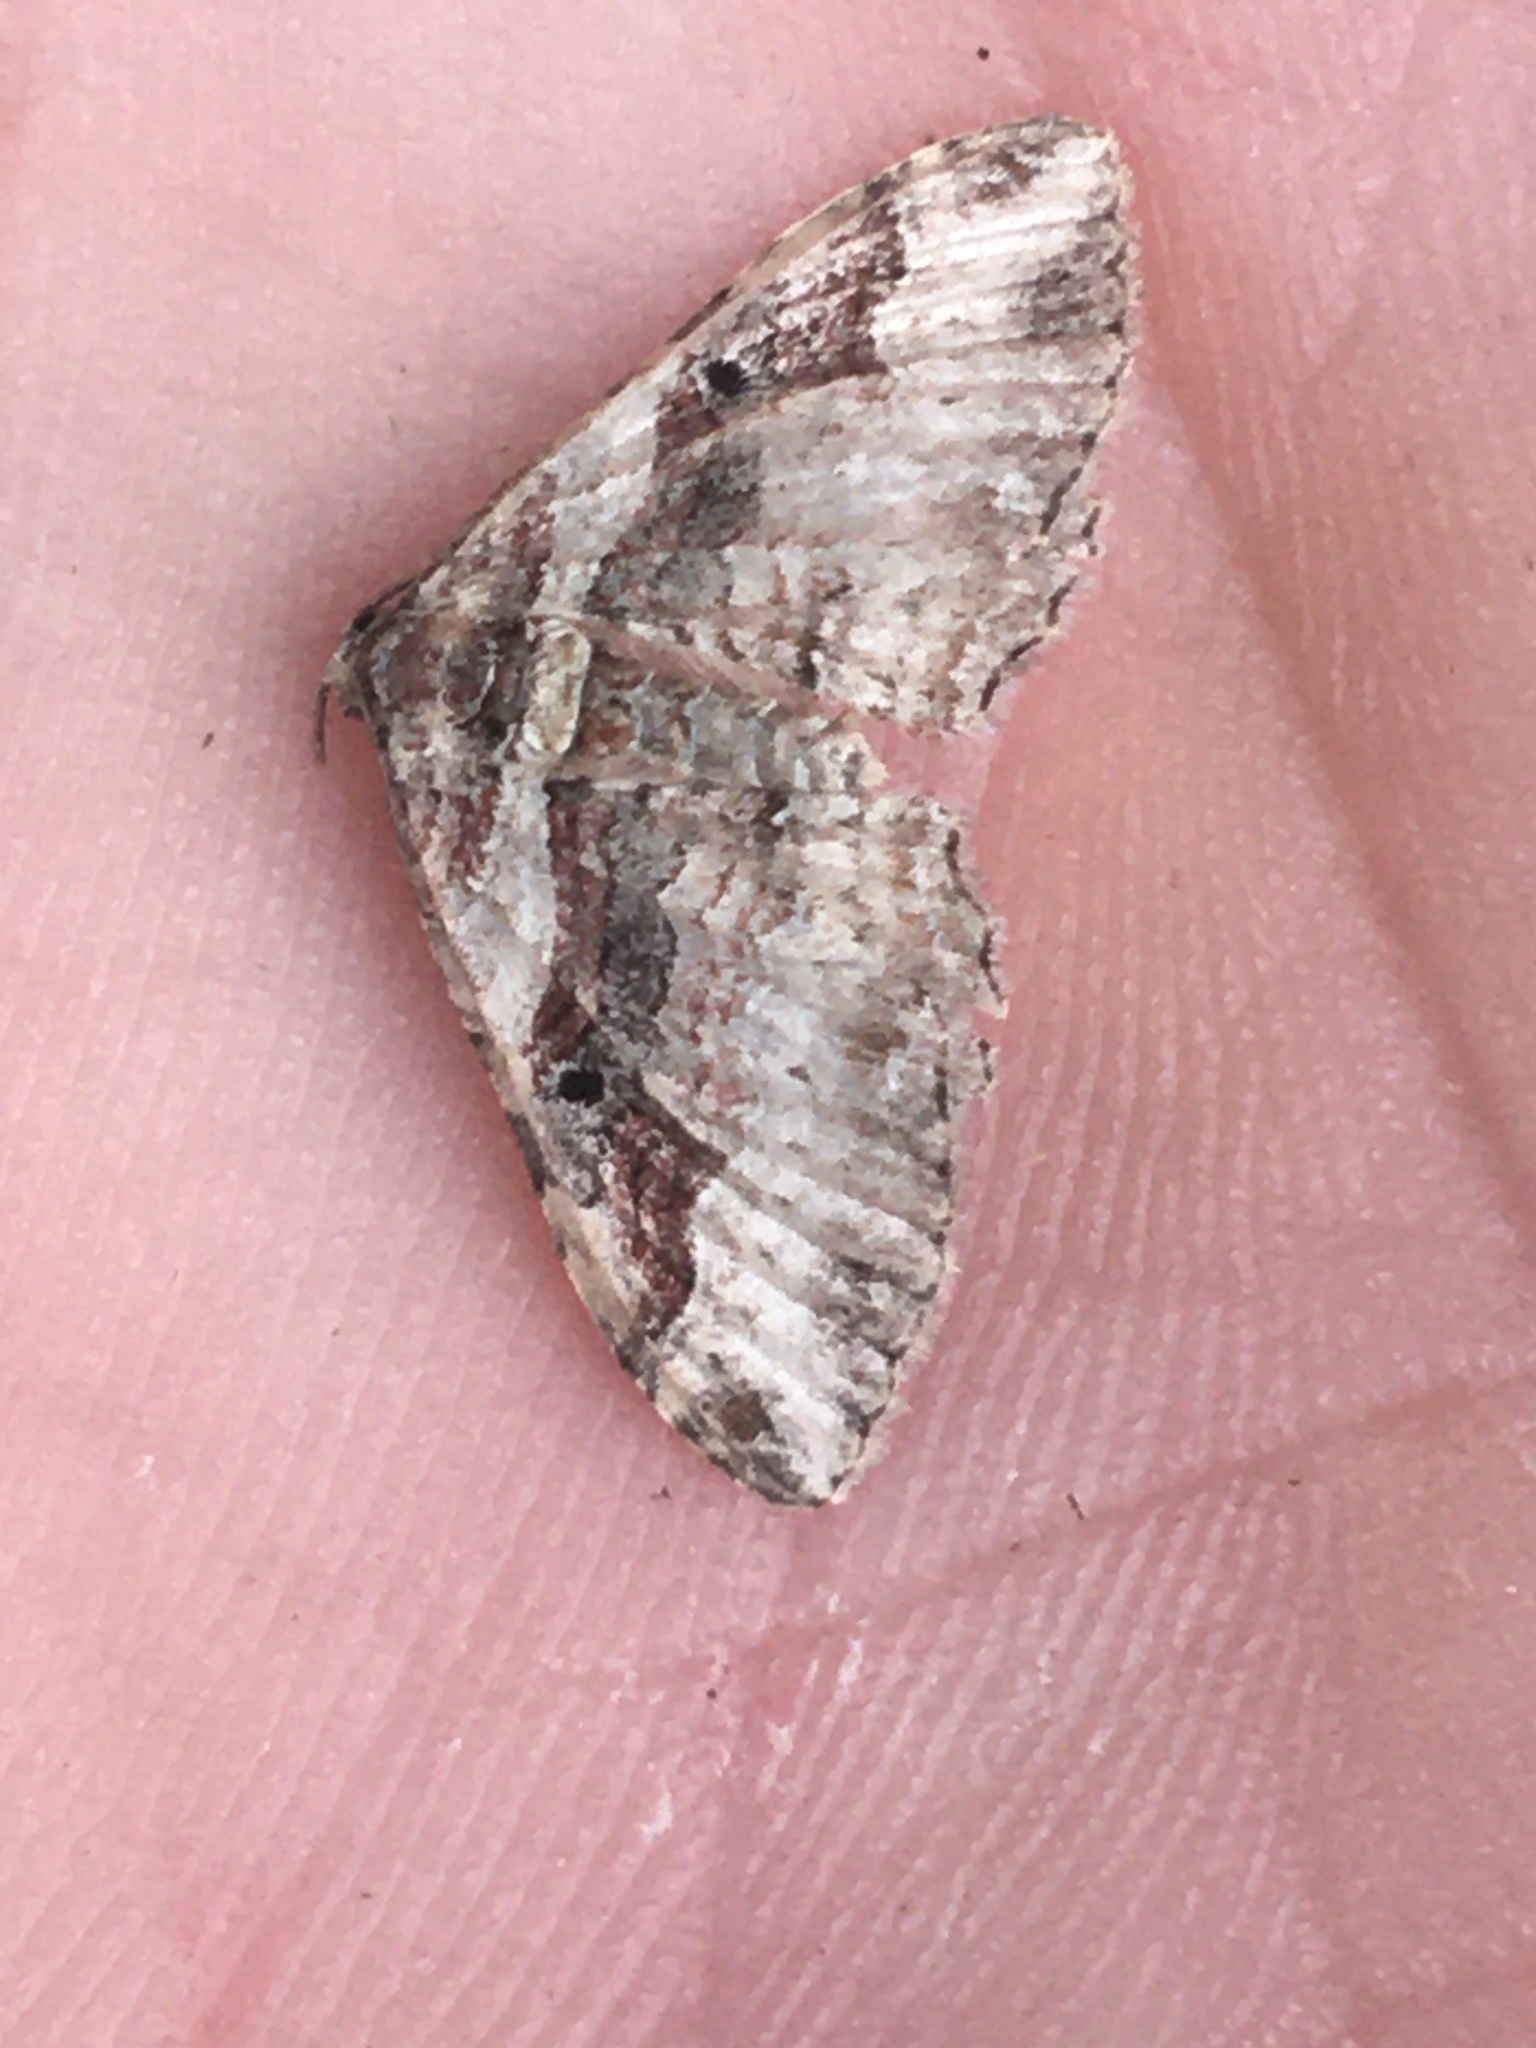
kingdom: Animalia
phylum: Arthropoda
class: Insecta
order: Lepidoptera
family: Geometridae
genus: Costaconvexa
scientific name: Costaconvexa centrostrigaria
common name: Bent-line carpet
